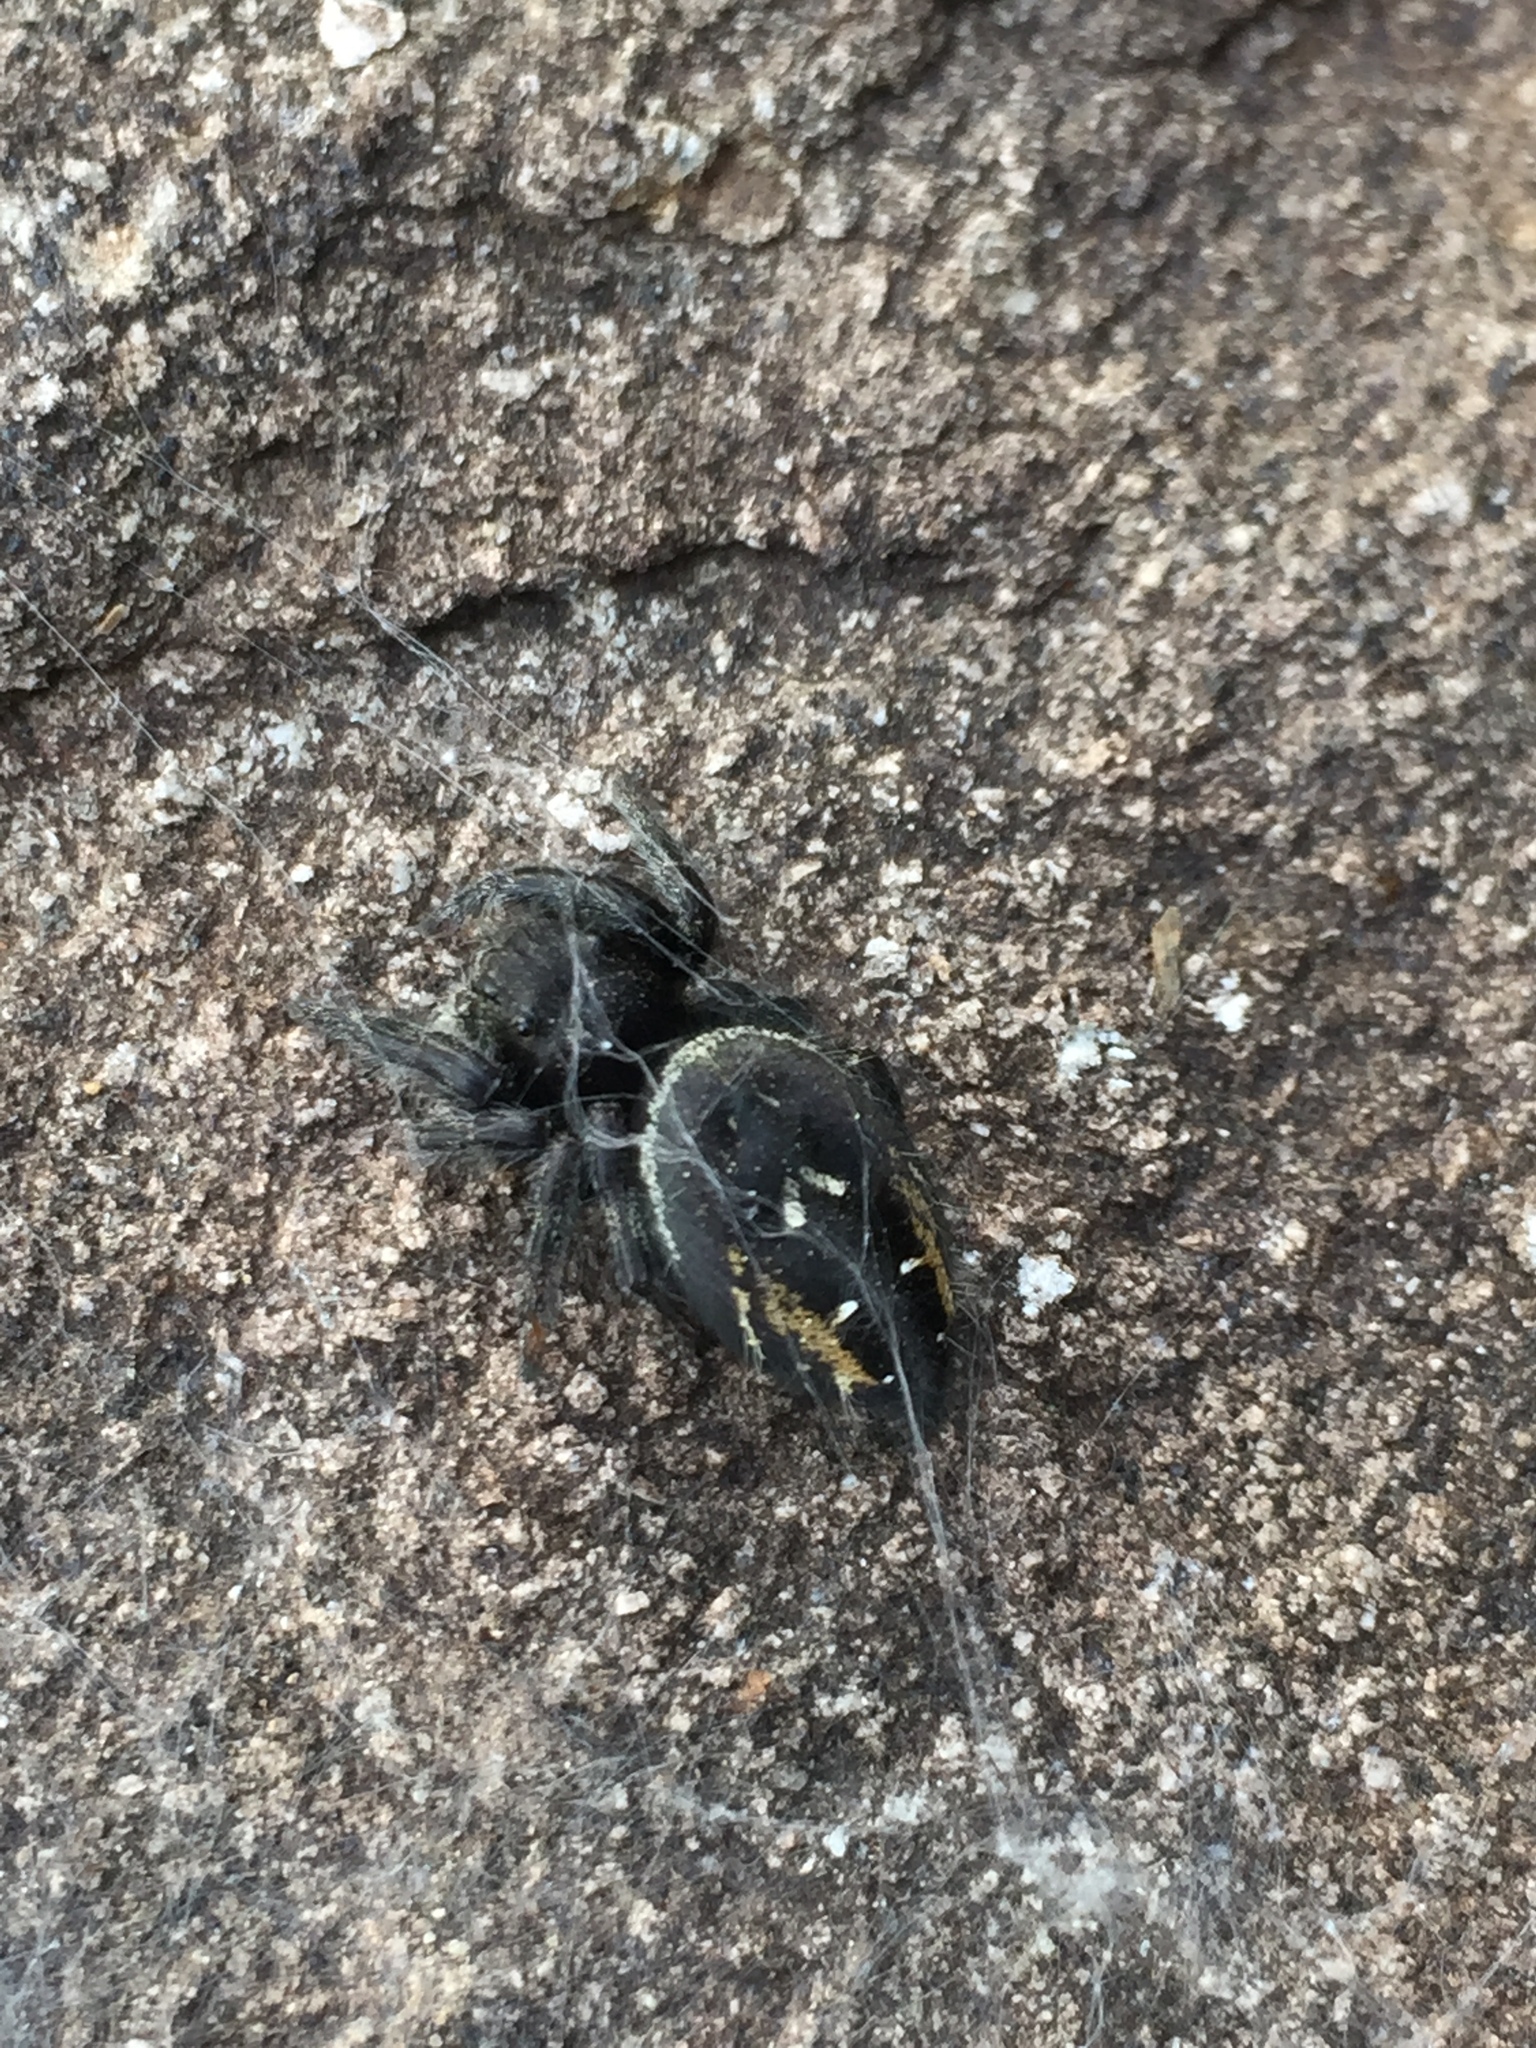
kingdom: Animalia
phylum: Arthropoda
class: Arachnida
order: Araneae
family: Salticidae
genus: Phidippus
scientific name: Phidippus johnsoni
